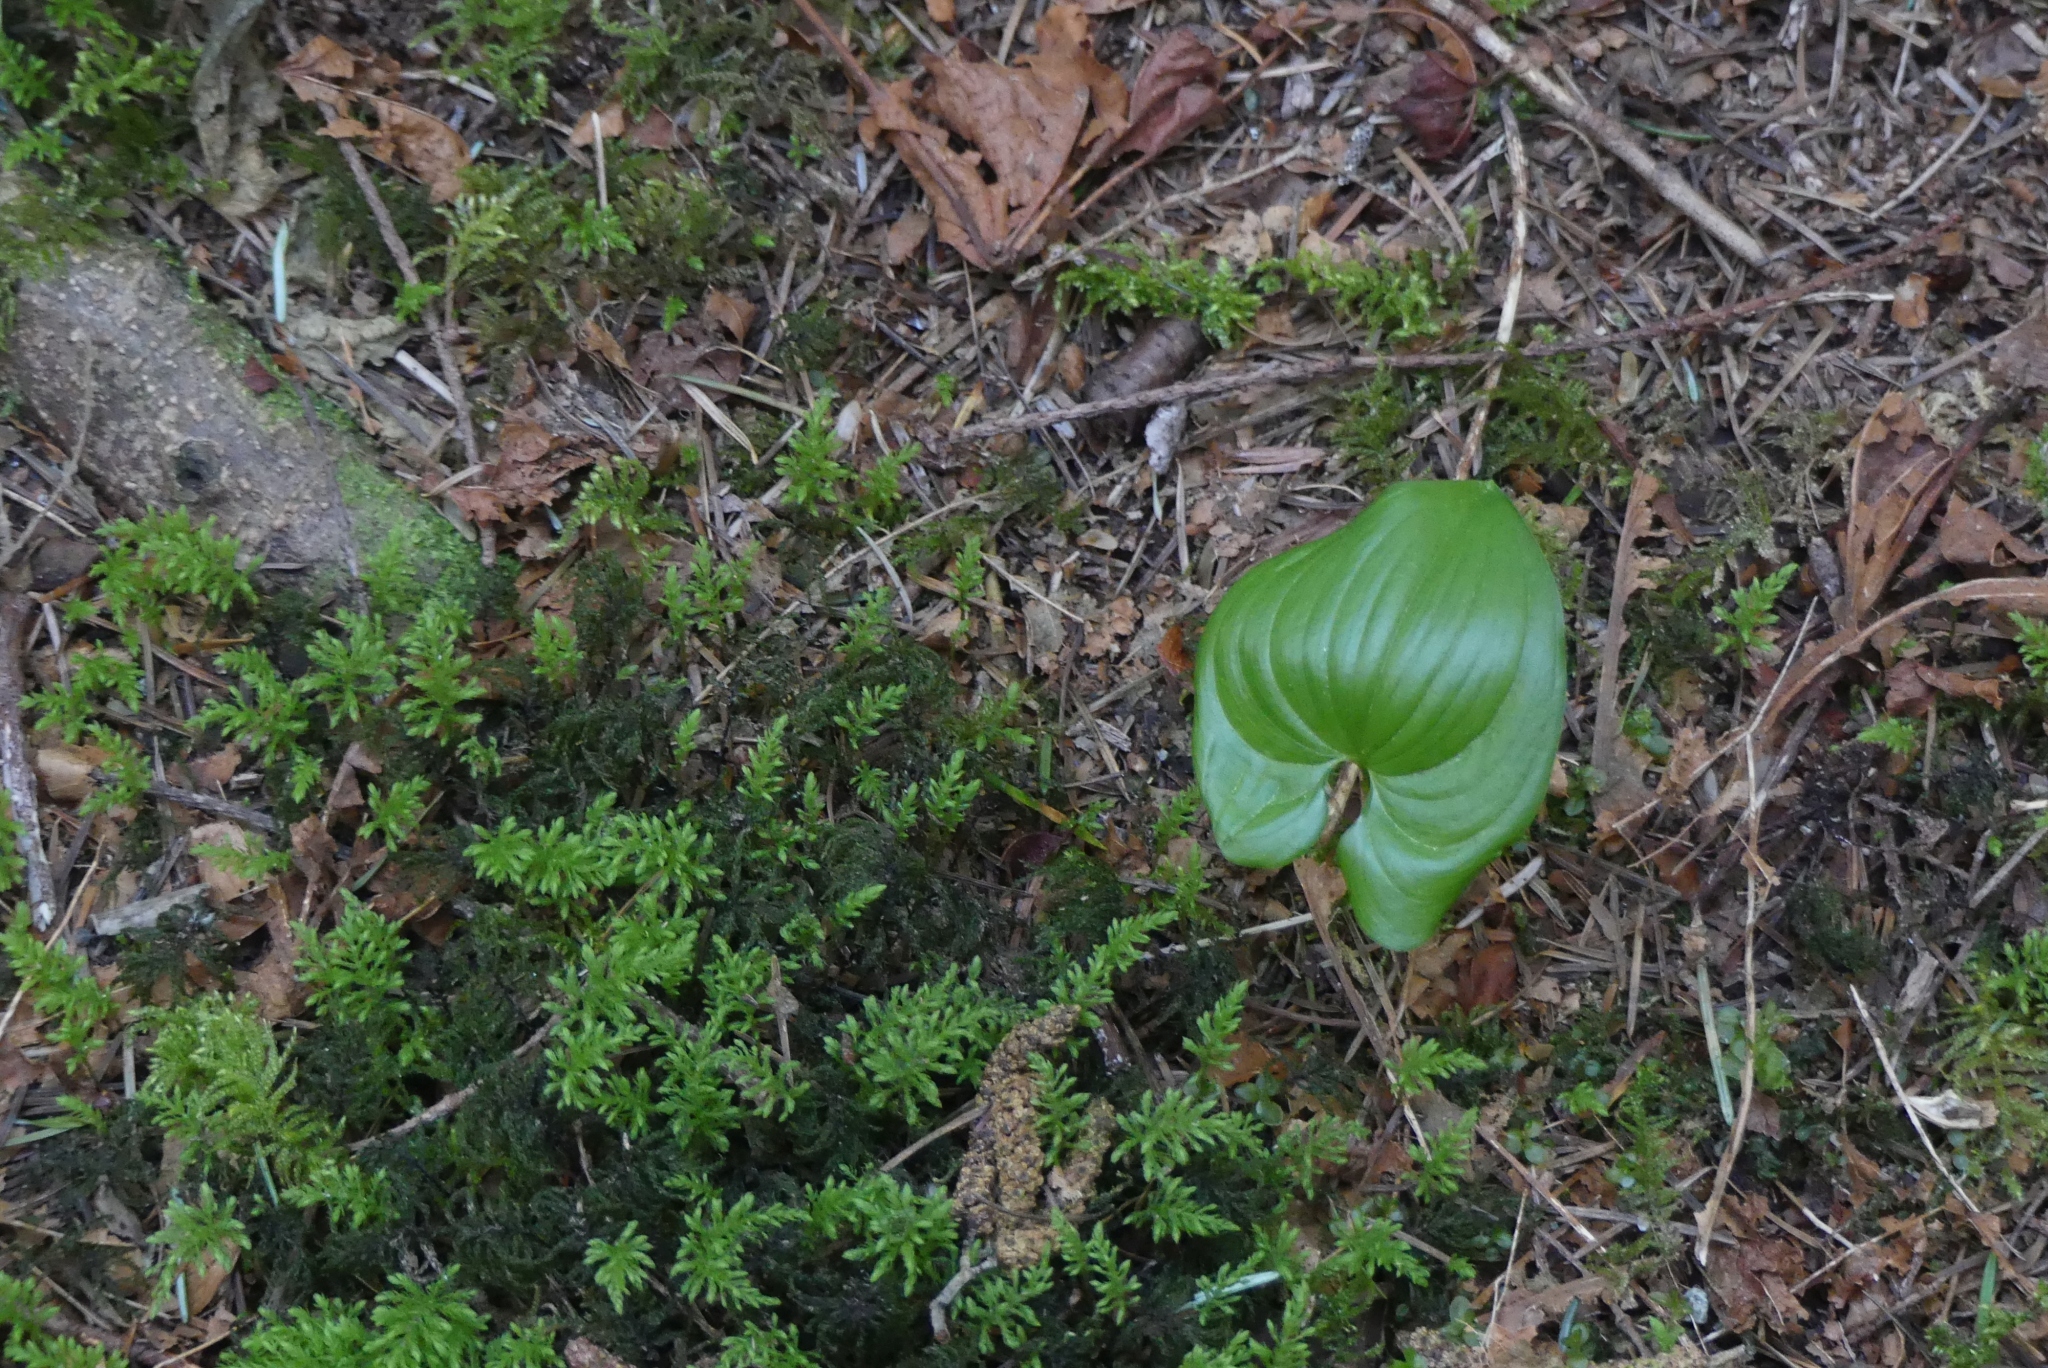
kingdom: Plantae
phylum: Tracheophyta
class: Liliopsida
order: Asparagales
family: Asparagaceae
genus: Maianthemum
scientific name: Maianthemum dilatatum
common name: False lily-of-the-valley
